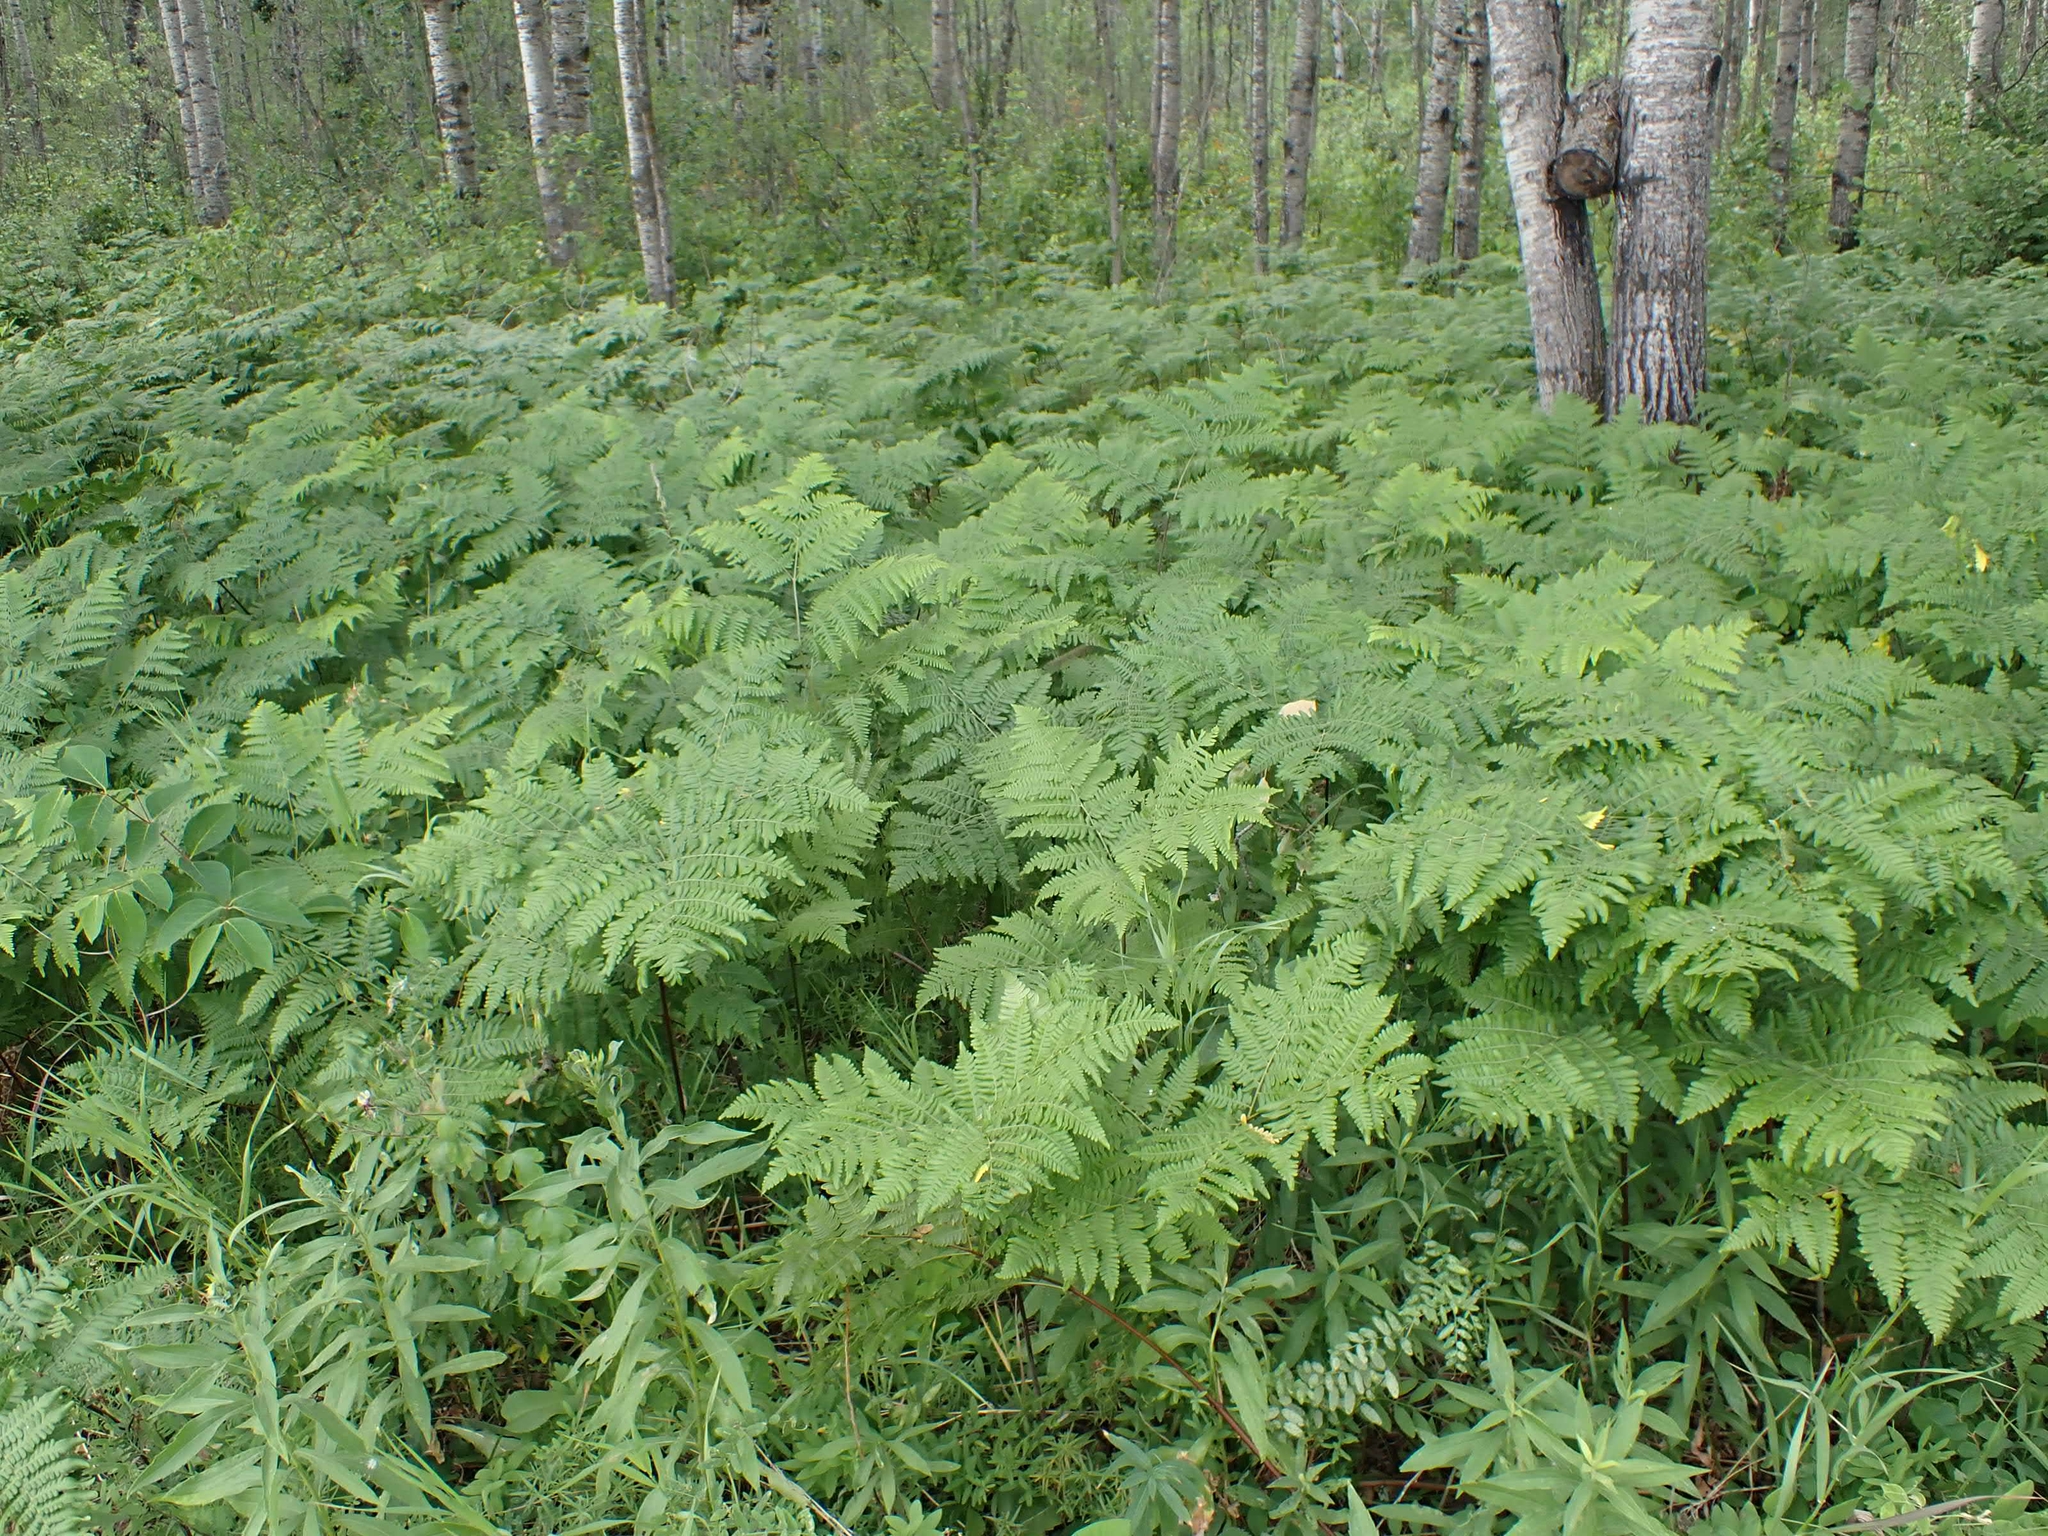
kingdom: Plantae
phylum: Tracheophyta
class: Polypodiopsida
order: Polypodiales
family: Dennstaedtiaceae
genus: Pteridium
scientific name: Pteridium aquilinum
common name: Bracken
